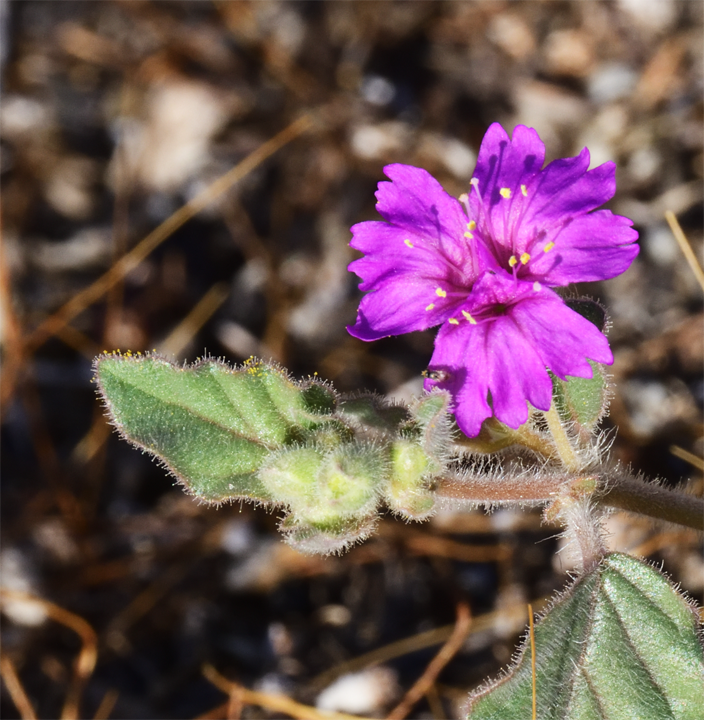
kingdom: Plantae
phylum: Tracheophyta
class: Magnoliopsida
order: Caryophyllales
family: Nyctaginaceae
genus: Allionia
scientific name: Allionia incarnata
